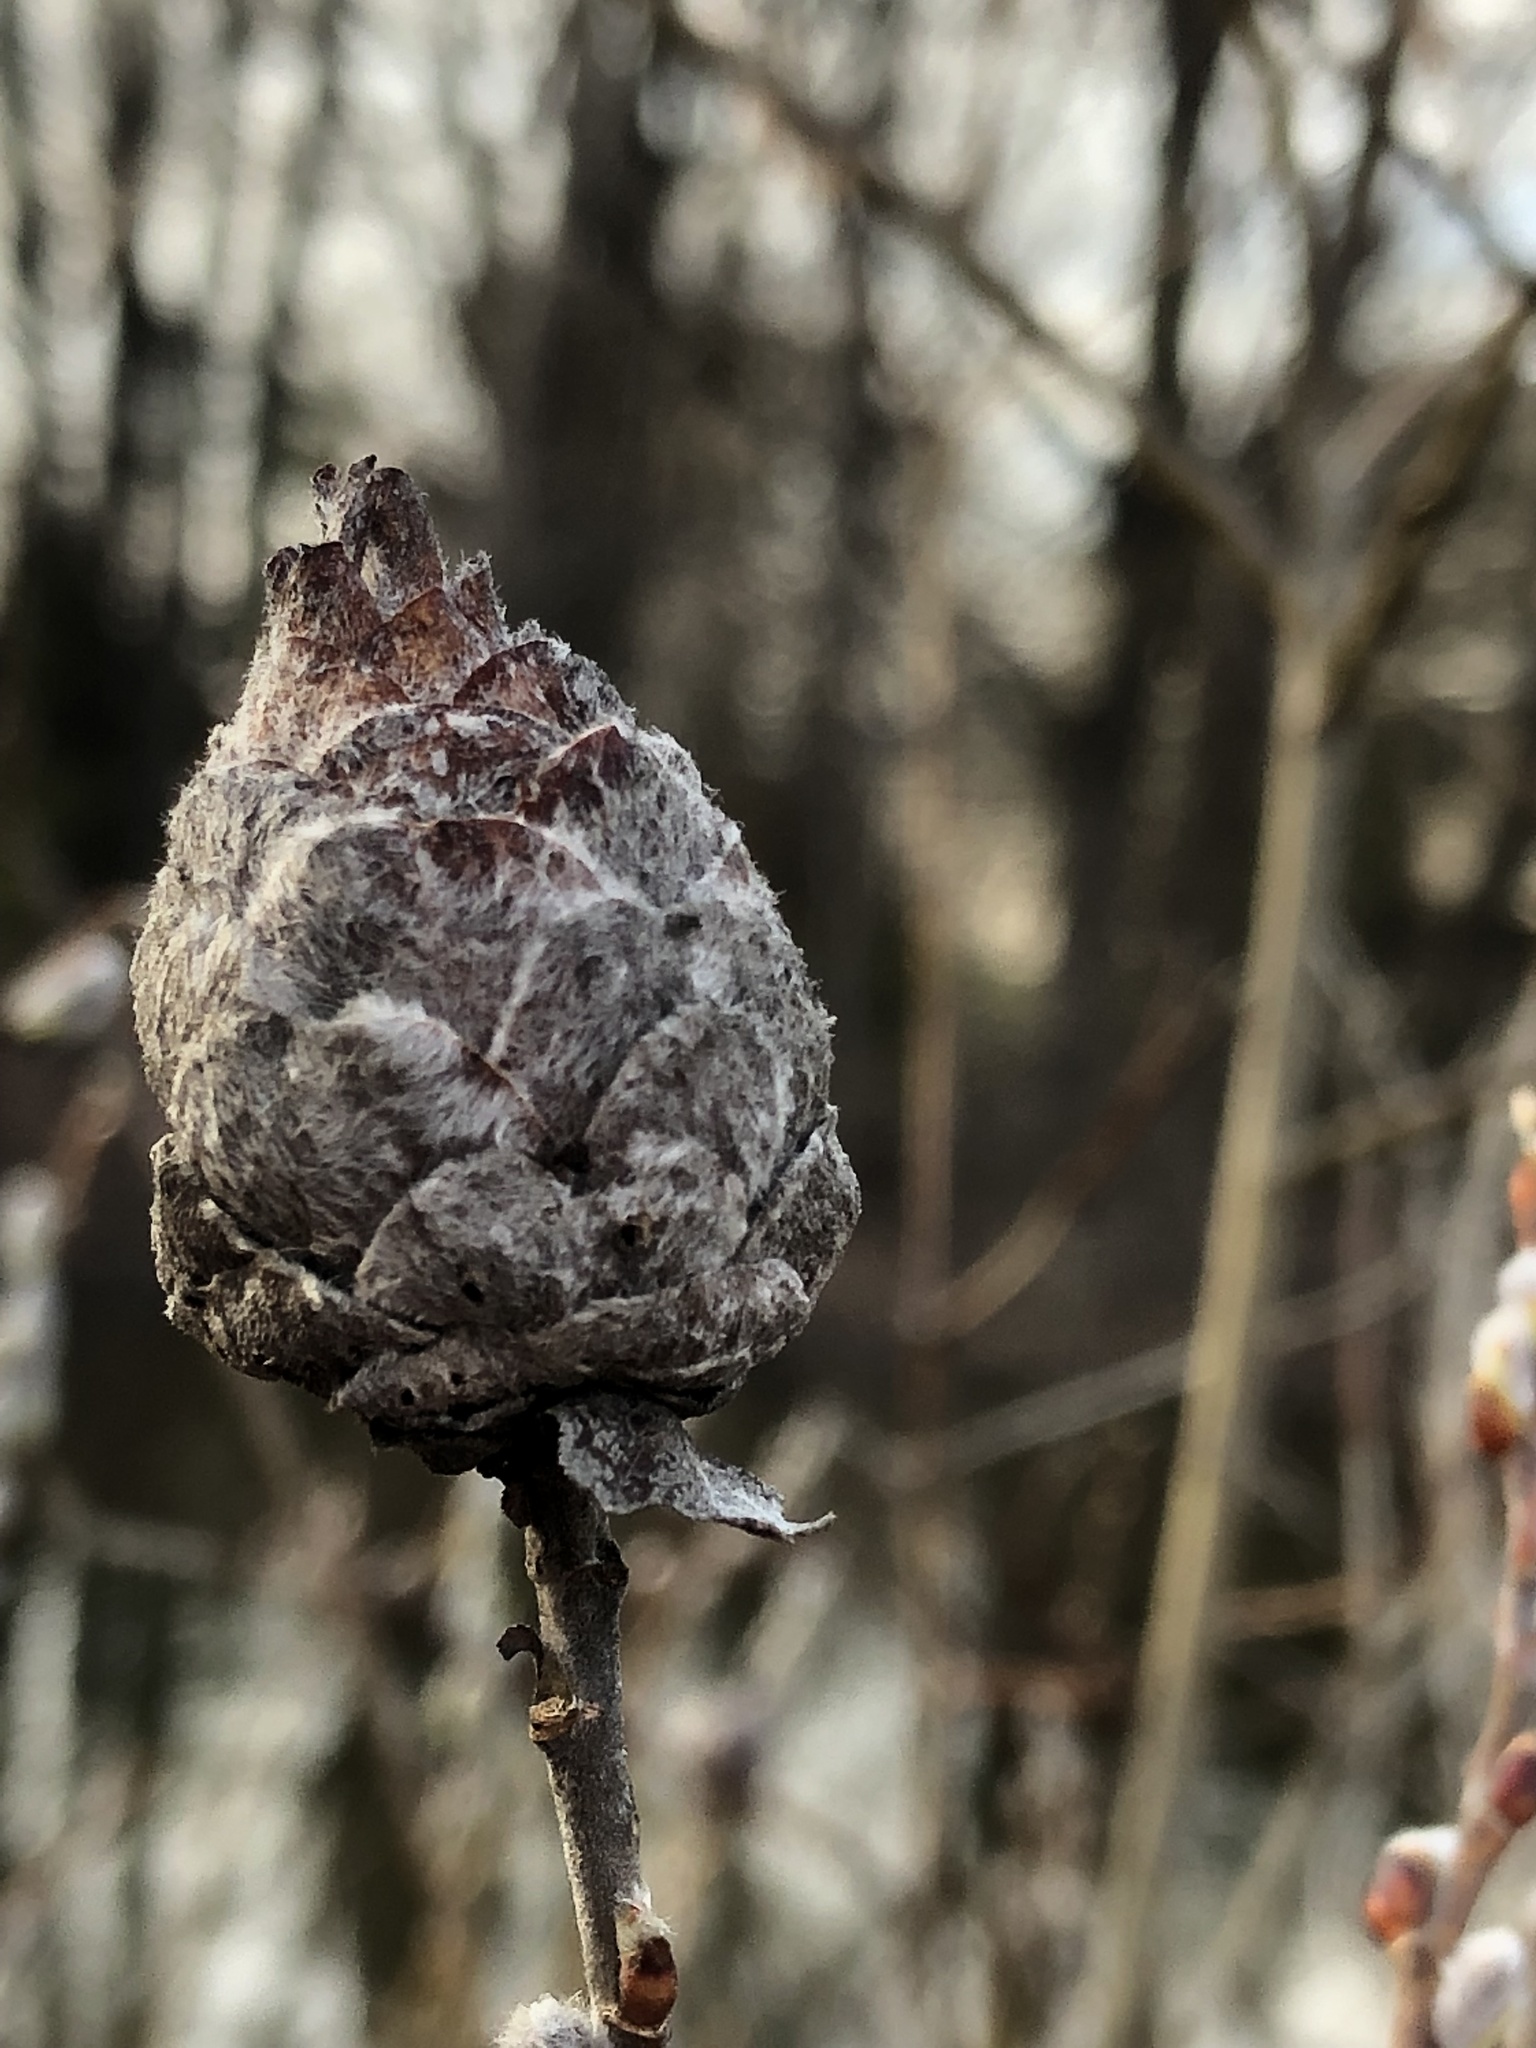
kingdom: Animalia
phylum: Arthropoda
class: Insecta
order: Diptera
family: Cecidomyiidae
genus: Rabdophaga
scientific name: Rabdophaga strobiloides
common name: Willow pinecone gall midge
